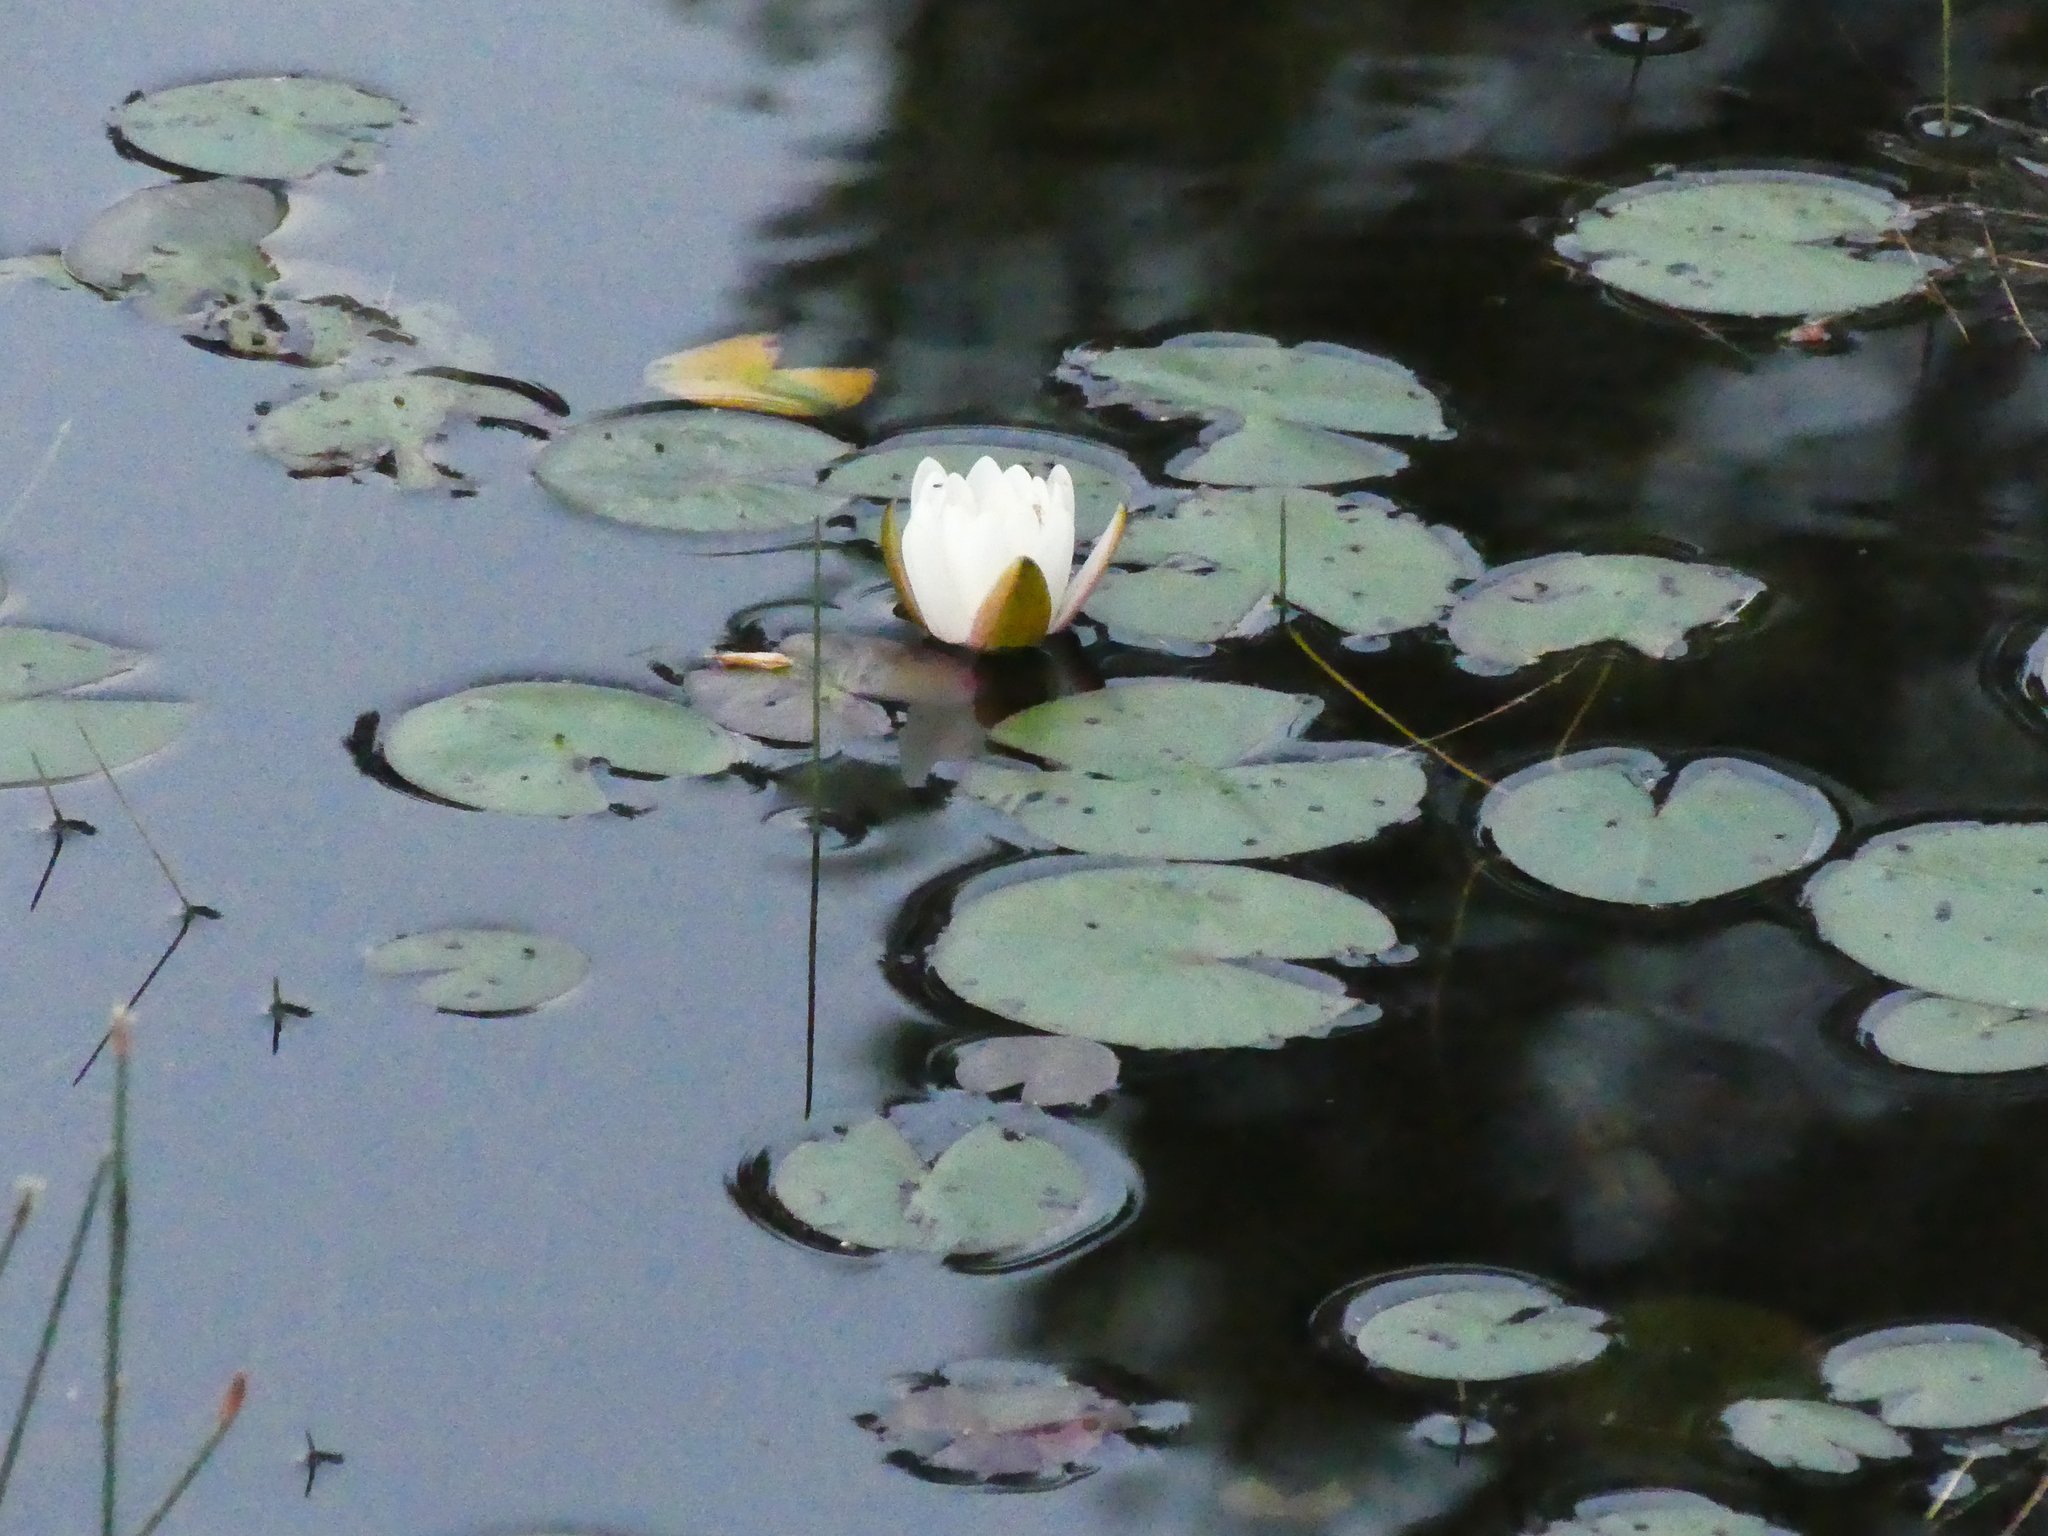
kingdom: Plantae
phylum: Tracheophyta
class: Magnoliopsida
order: Nymphaeales
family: Nymphaeaceae
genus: Nymphaea
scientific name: Nymphaea odorata
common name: Fragrant water-lily
